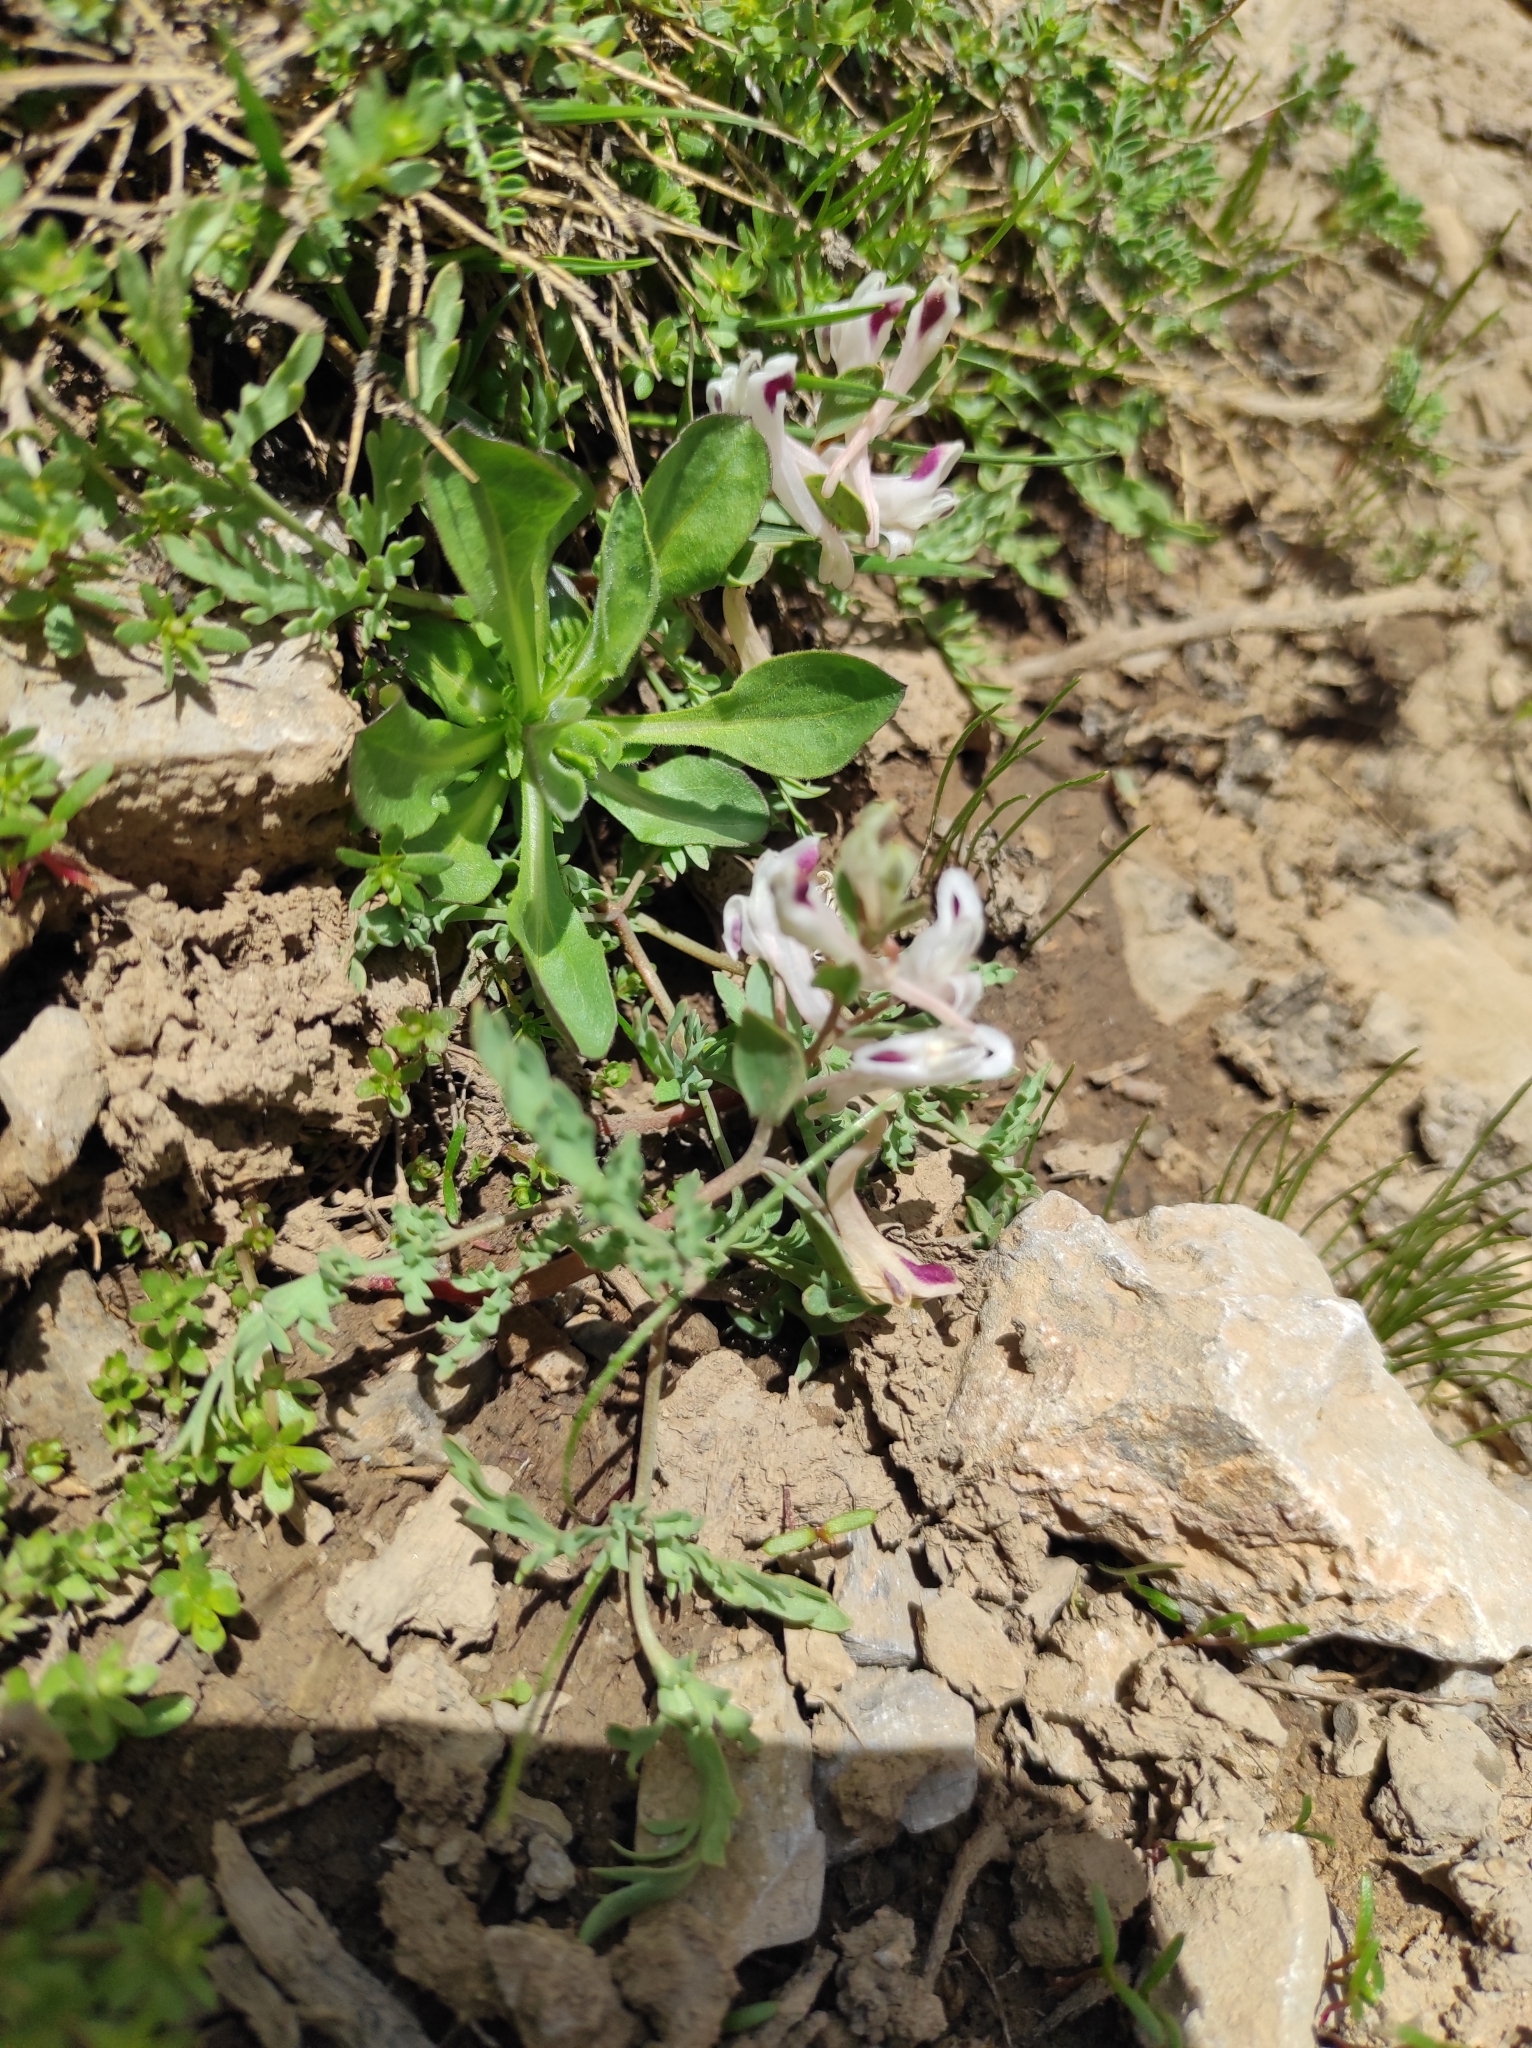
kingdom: Plantae
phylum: Tracheophyta
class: Magnoliopsida
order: Ranunculales
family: Papaveraceae
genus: Corydalis
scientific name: Corydalis verticillaris
